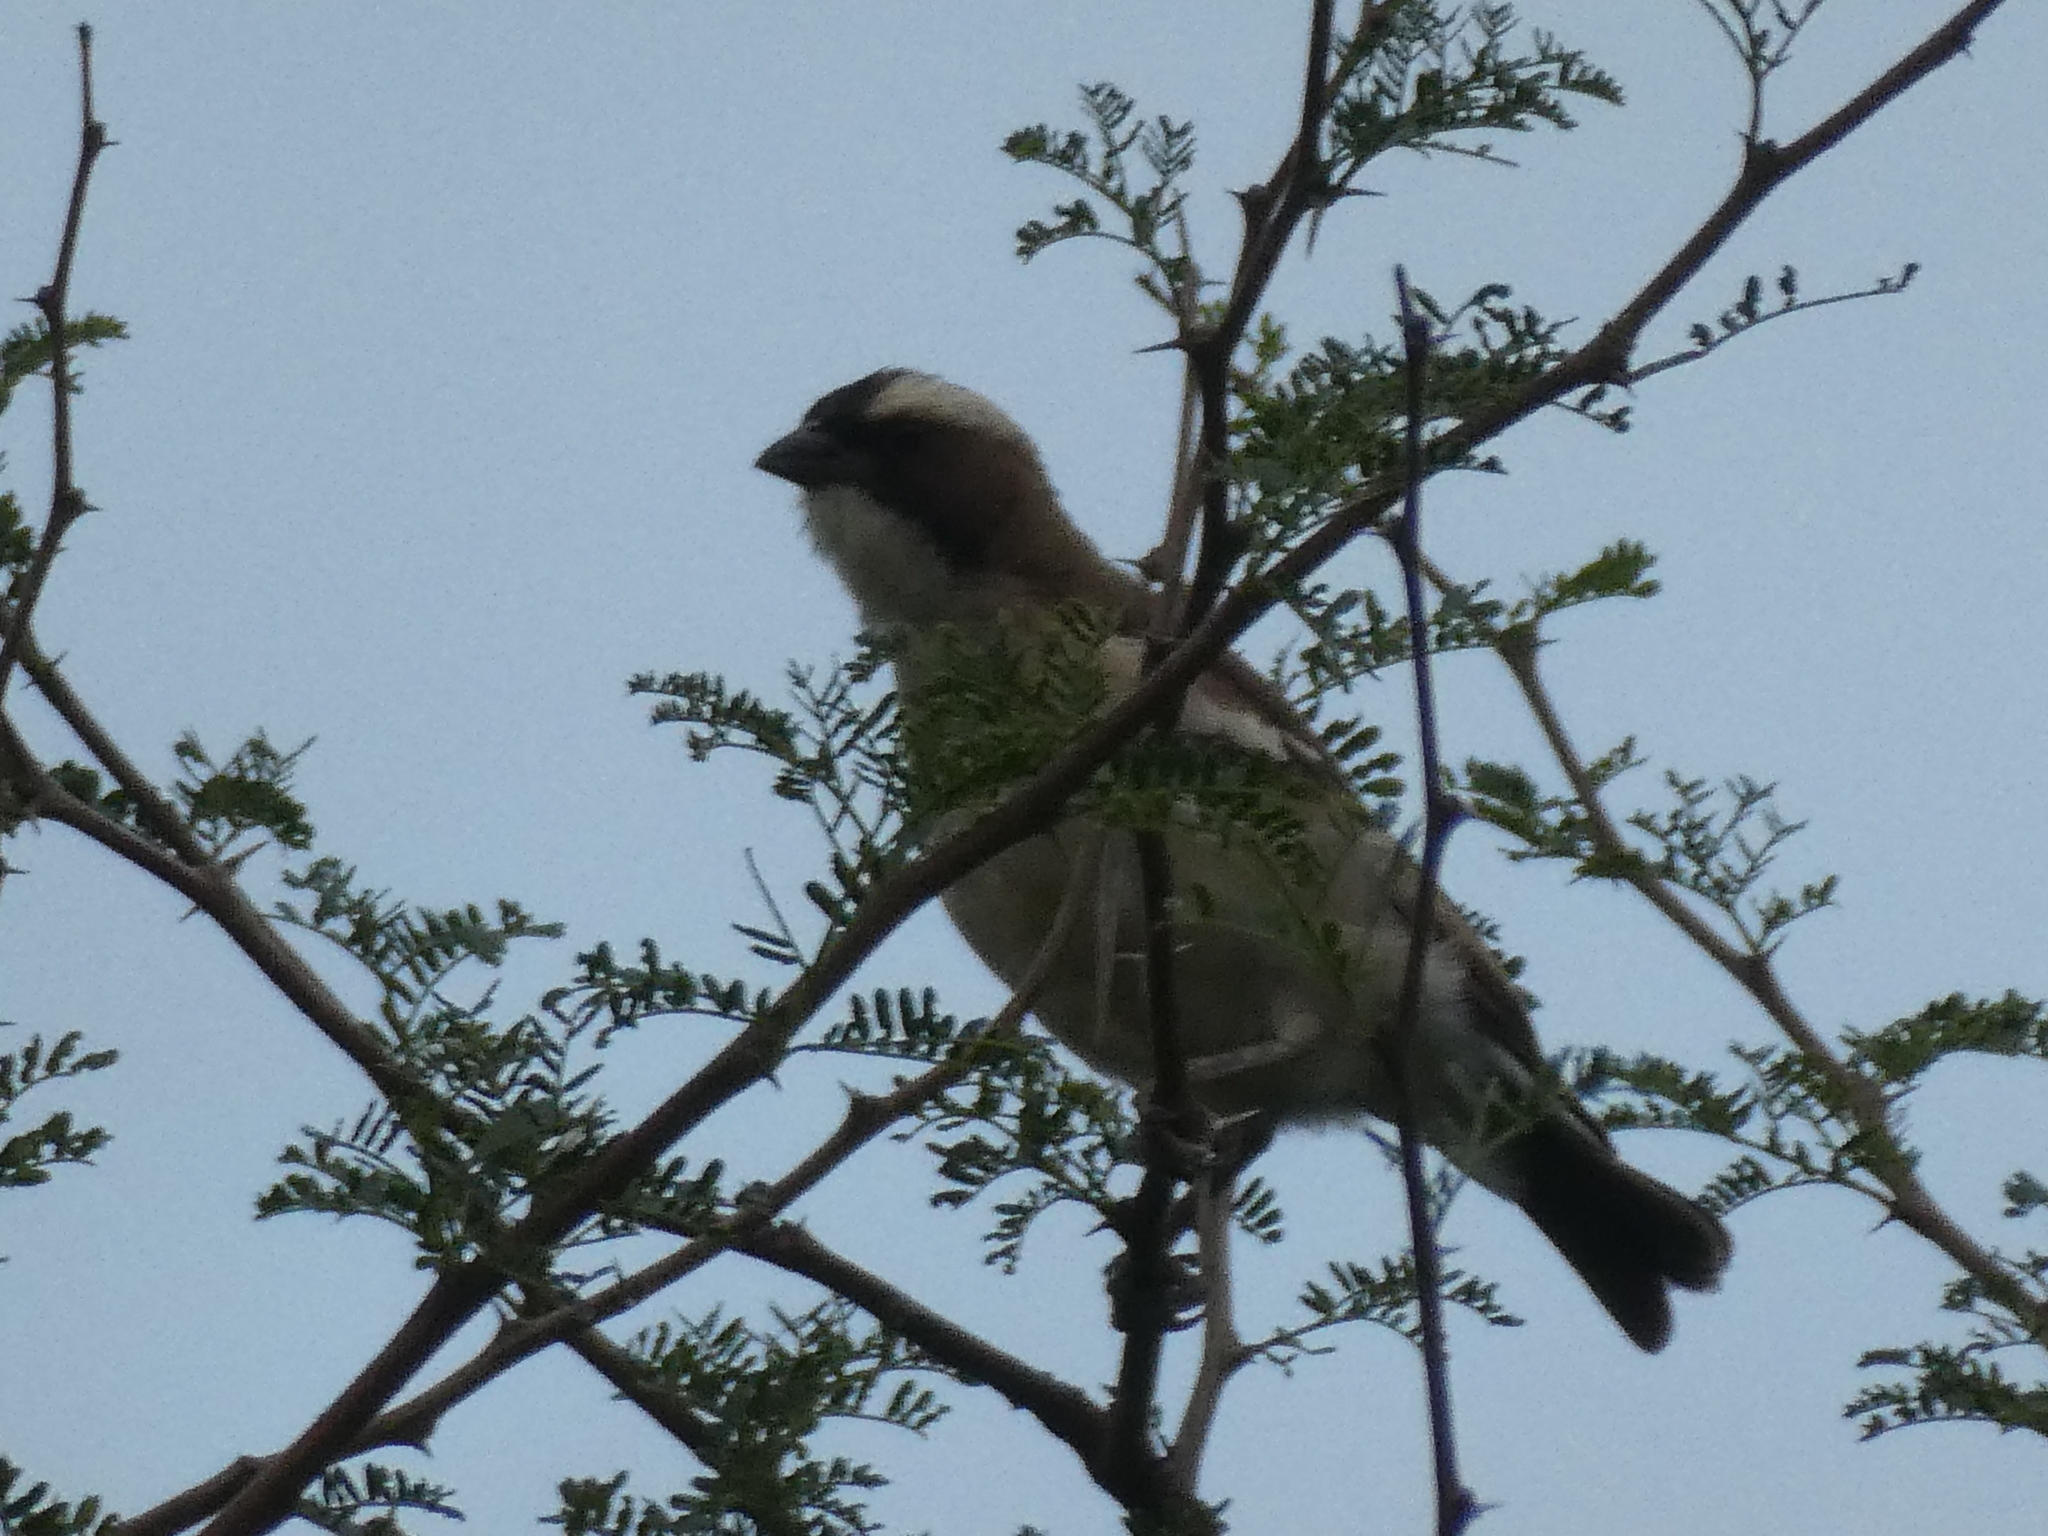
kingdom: Animalia
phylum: Chordata
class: Aves
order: Passeriformes
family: Passeridae
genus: Plocepasser
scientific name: Plocepasser mahali
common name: White-browed sparrow-weaver
